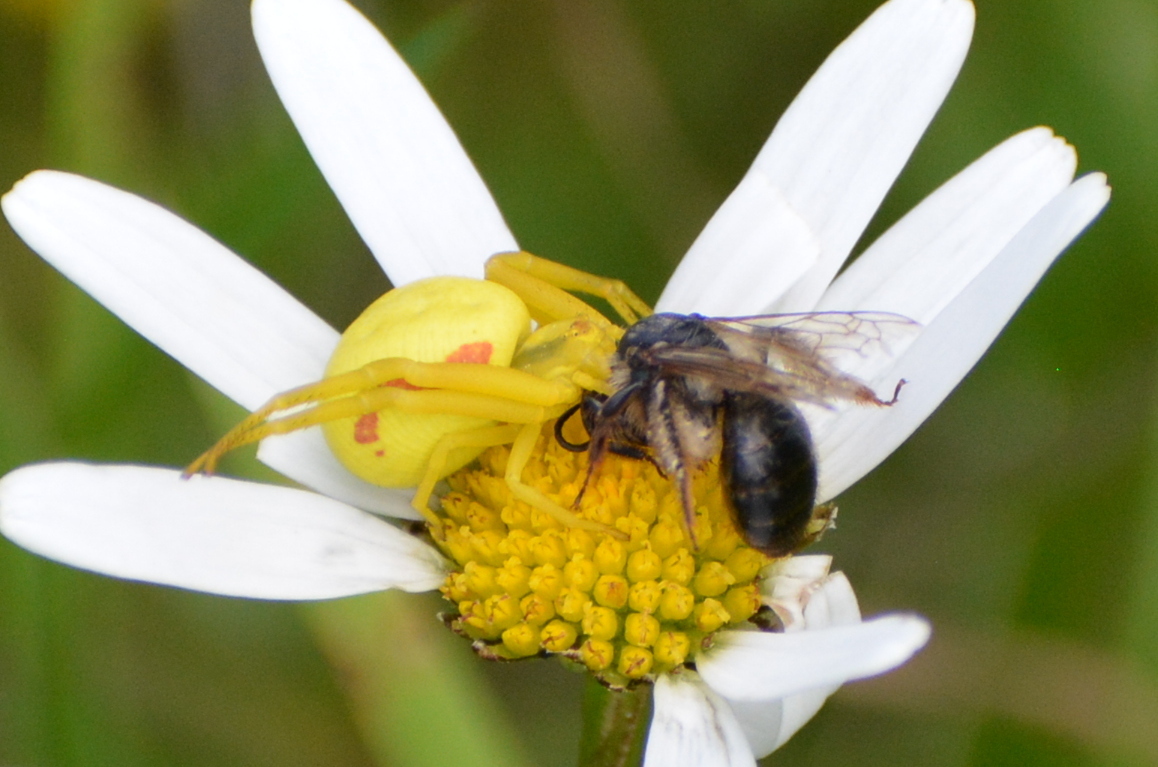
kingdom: Animalia
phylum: Arthropoda
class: Arachnida
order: Araneae
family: Thomisidae
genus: Misumena
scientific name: Misumena vatia
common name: Goldenrod crab spider
